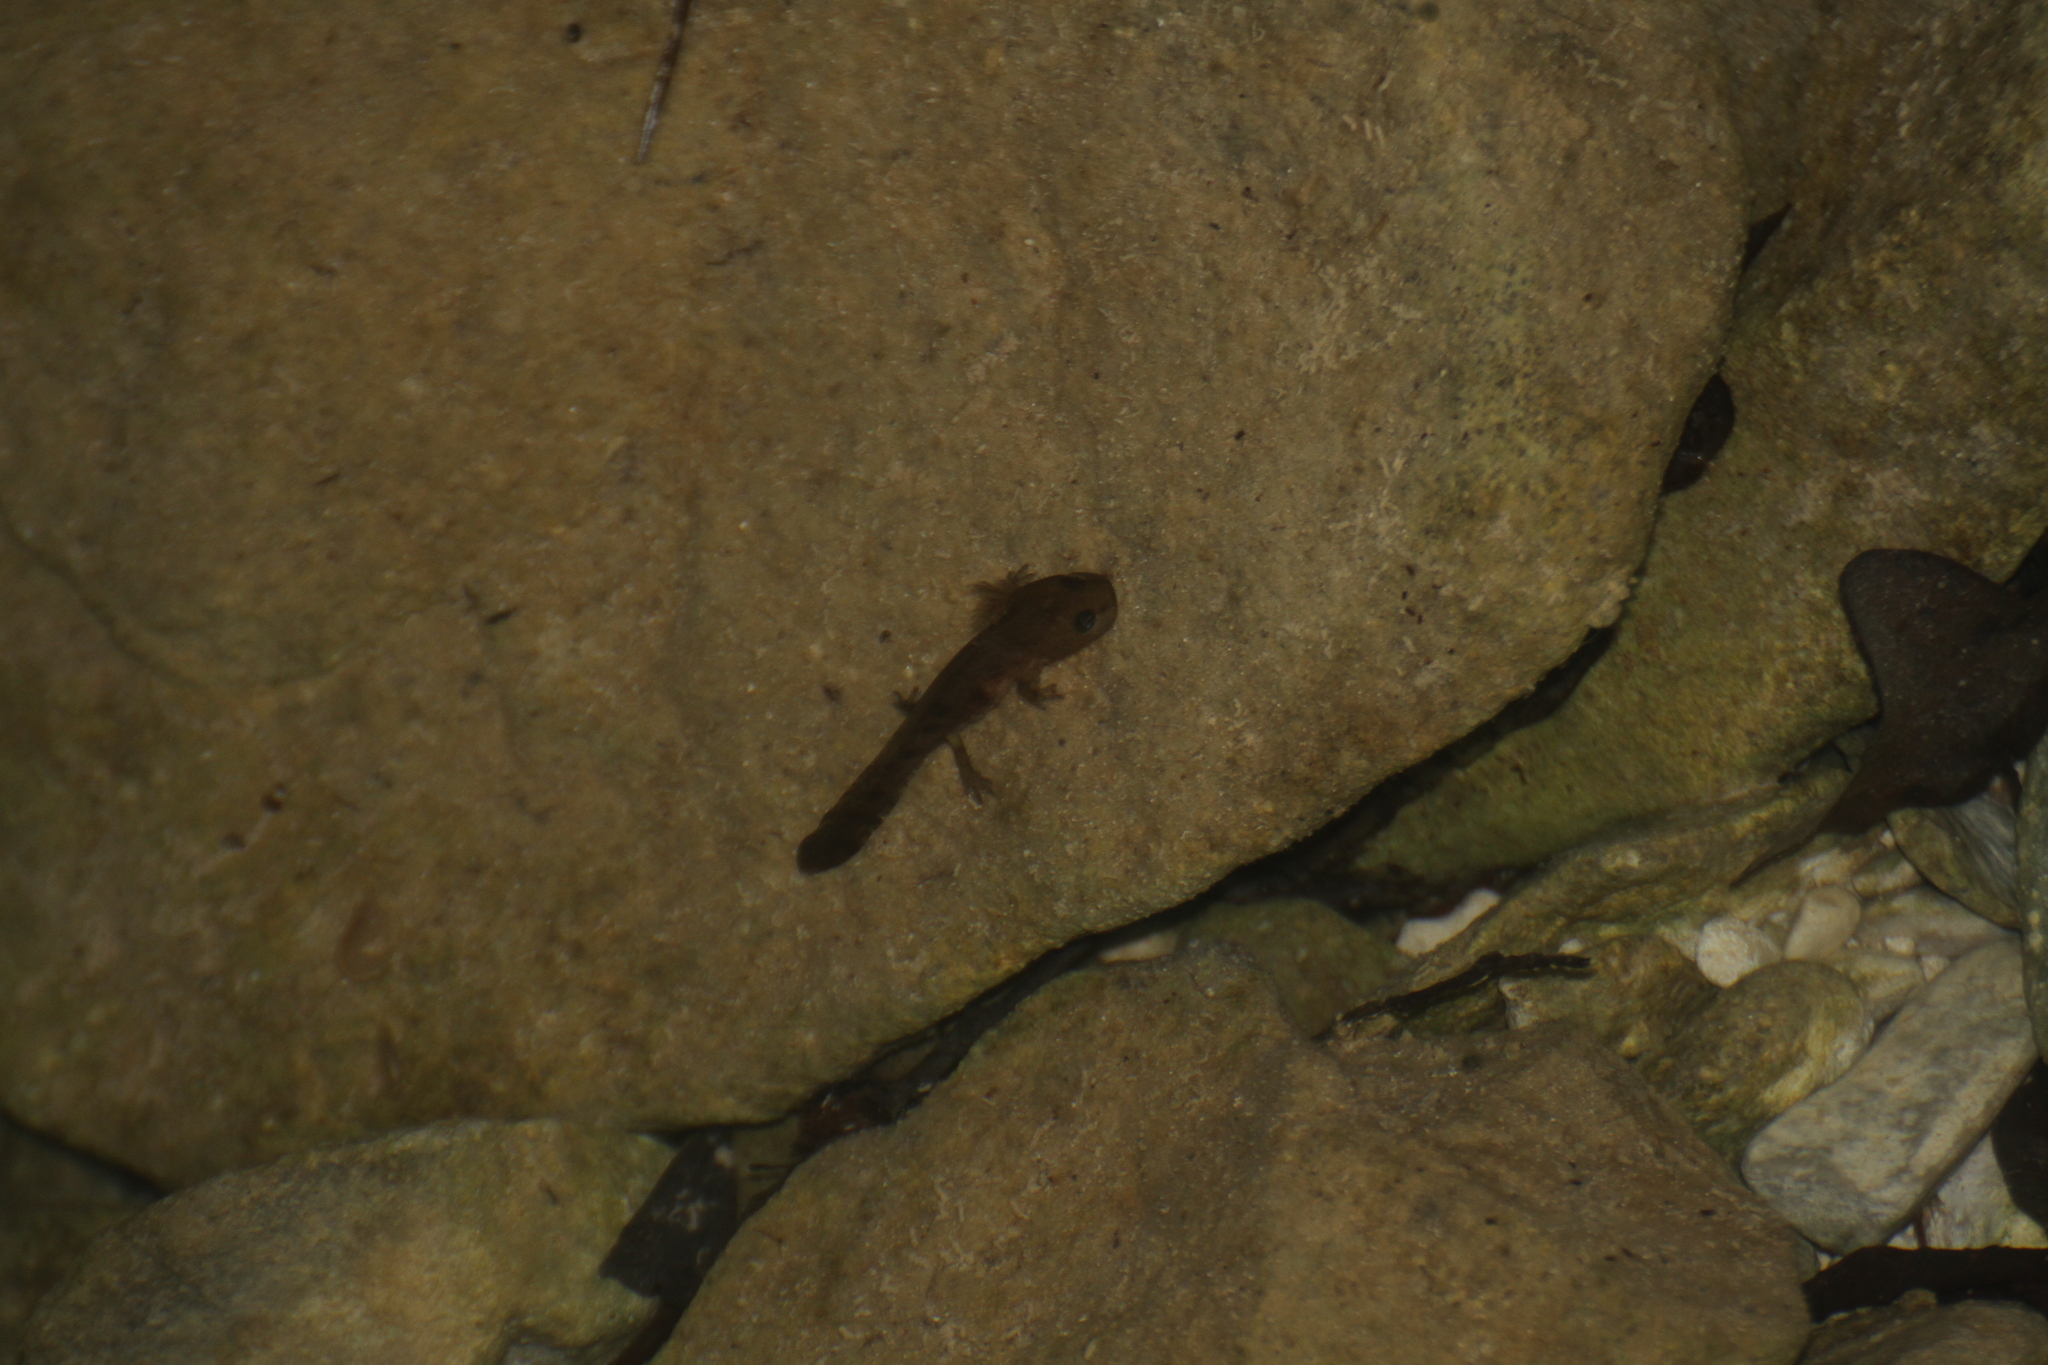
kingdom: Animalia
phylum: Chordata
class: Amphibia
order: Caudata
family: Salamandridae
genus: Salamandra
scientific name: Salamandra salamandra
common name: Fire salamander
